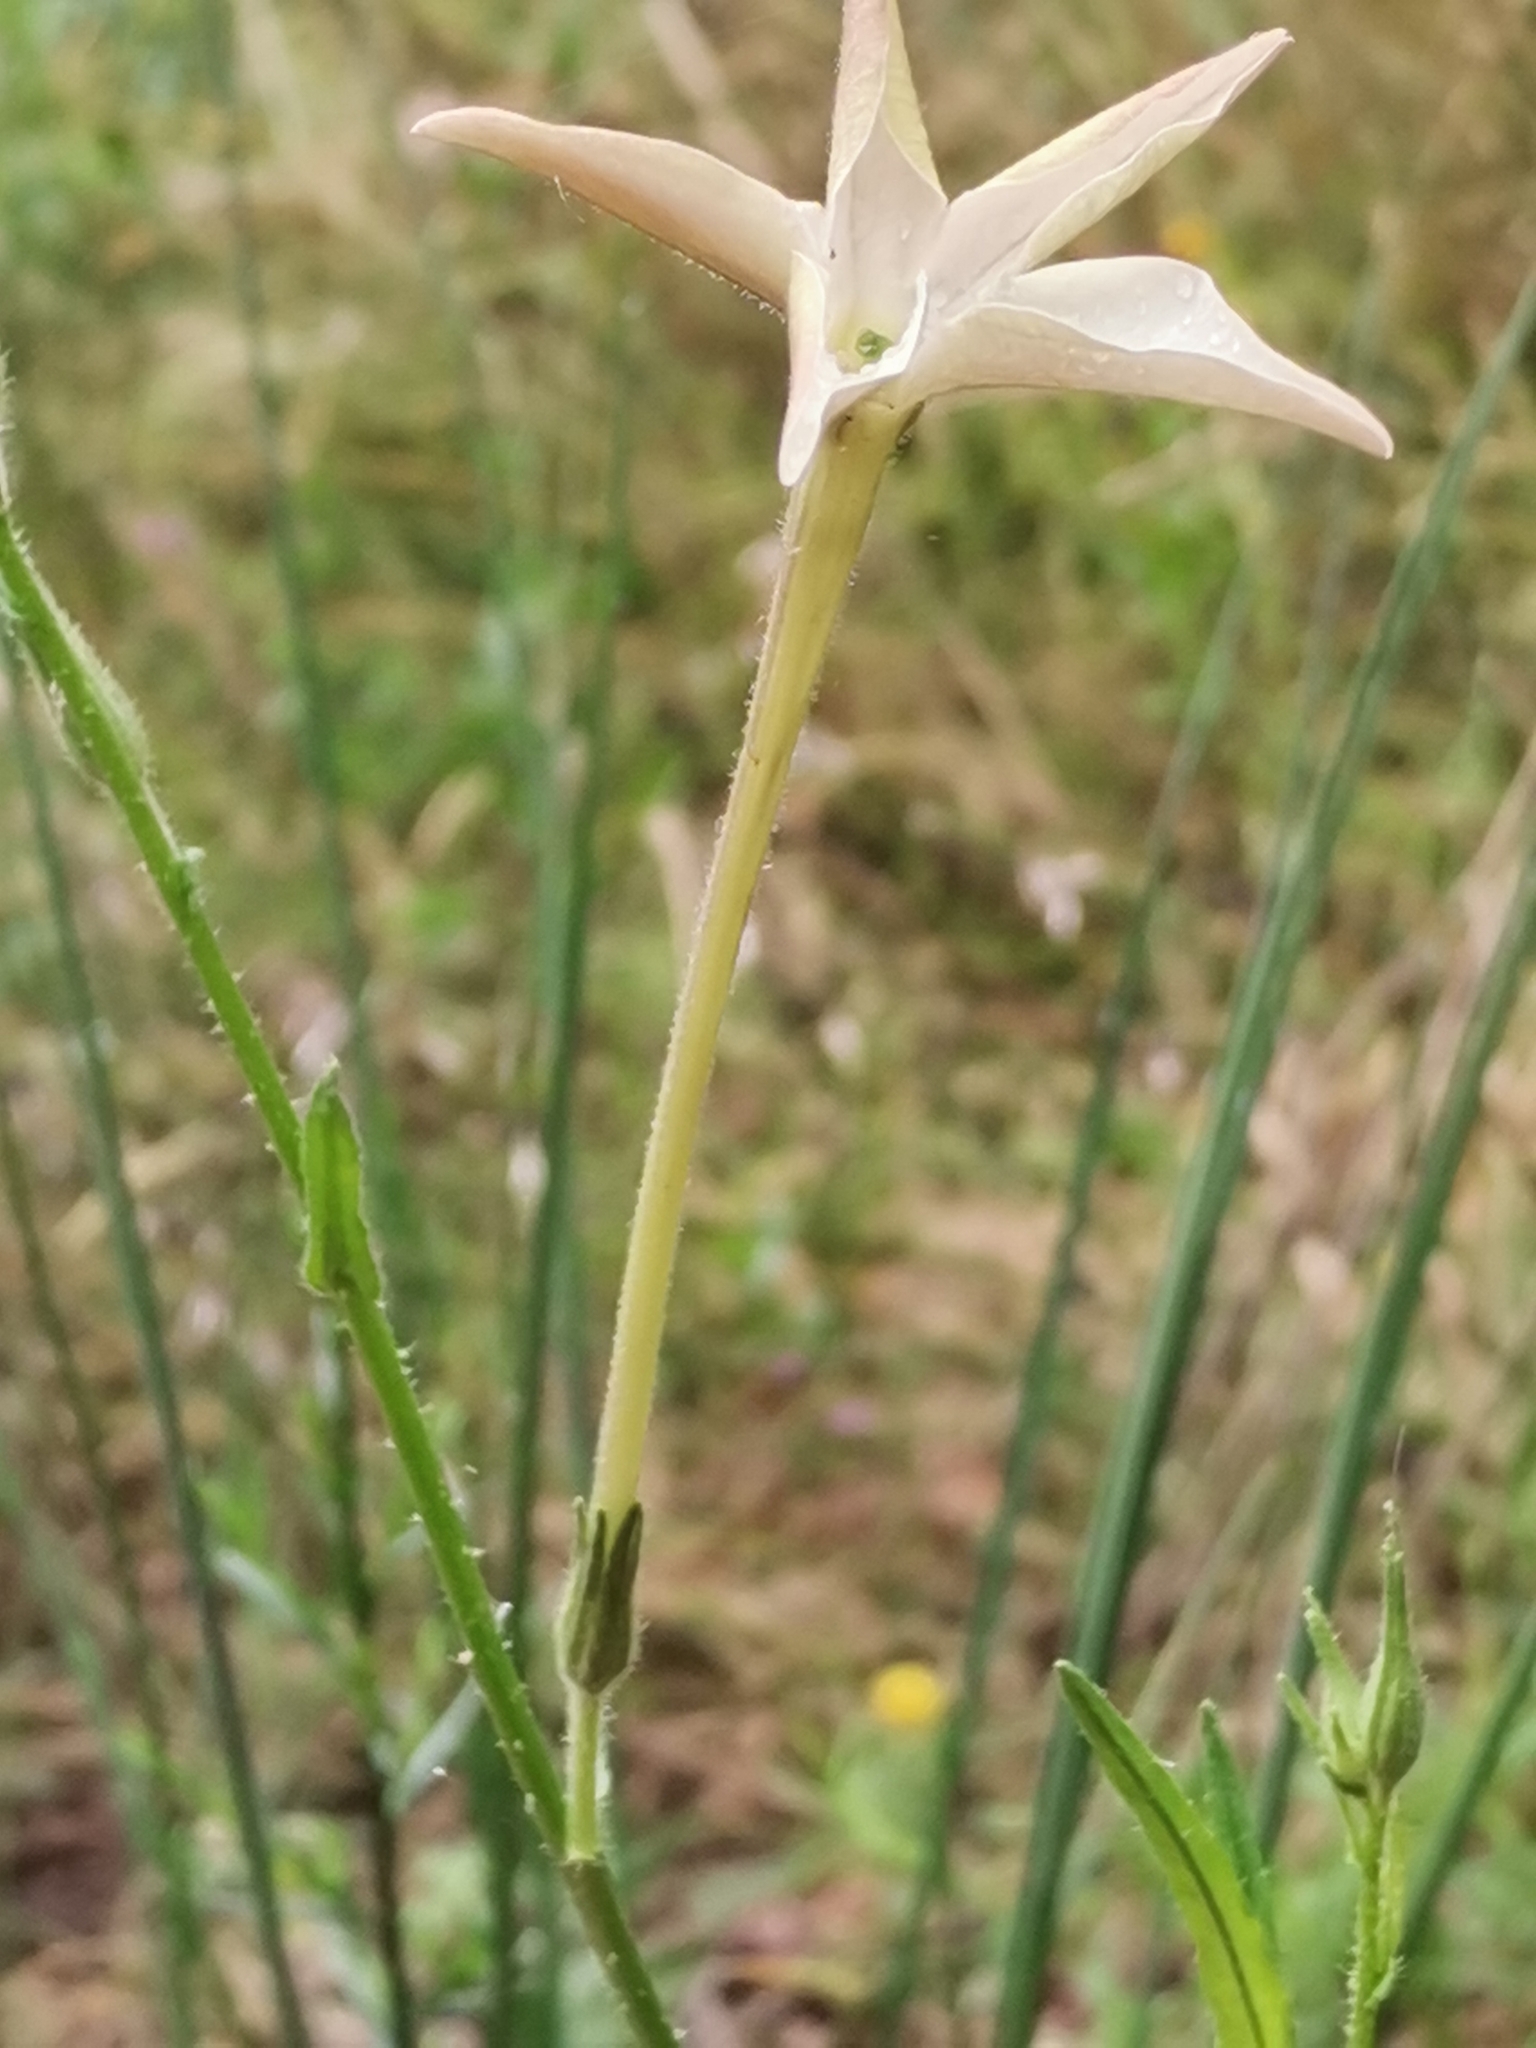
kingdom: Plantae
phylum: Tracheophyta
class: Magnoliopsida
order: Solanales
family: Solanaceae
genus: Nicotiana
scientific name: Nicotiana longiflora
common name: Long-flowered tobacco
